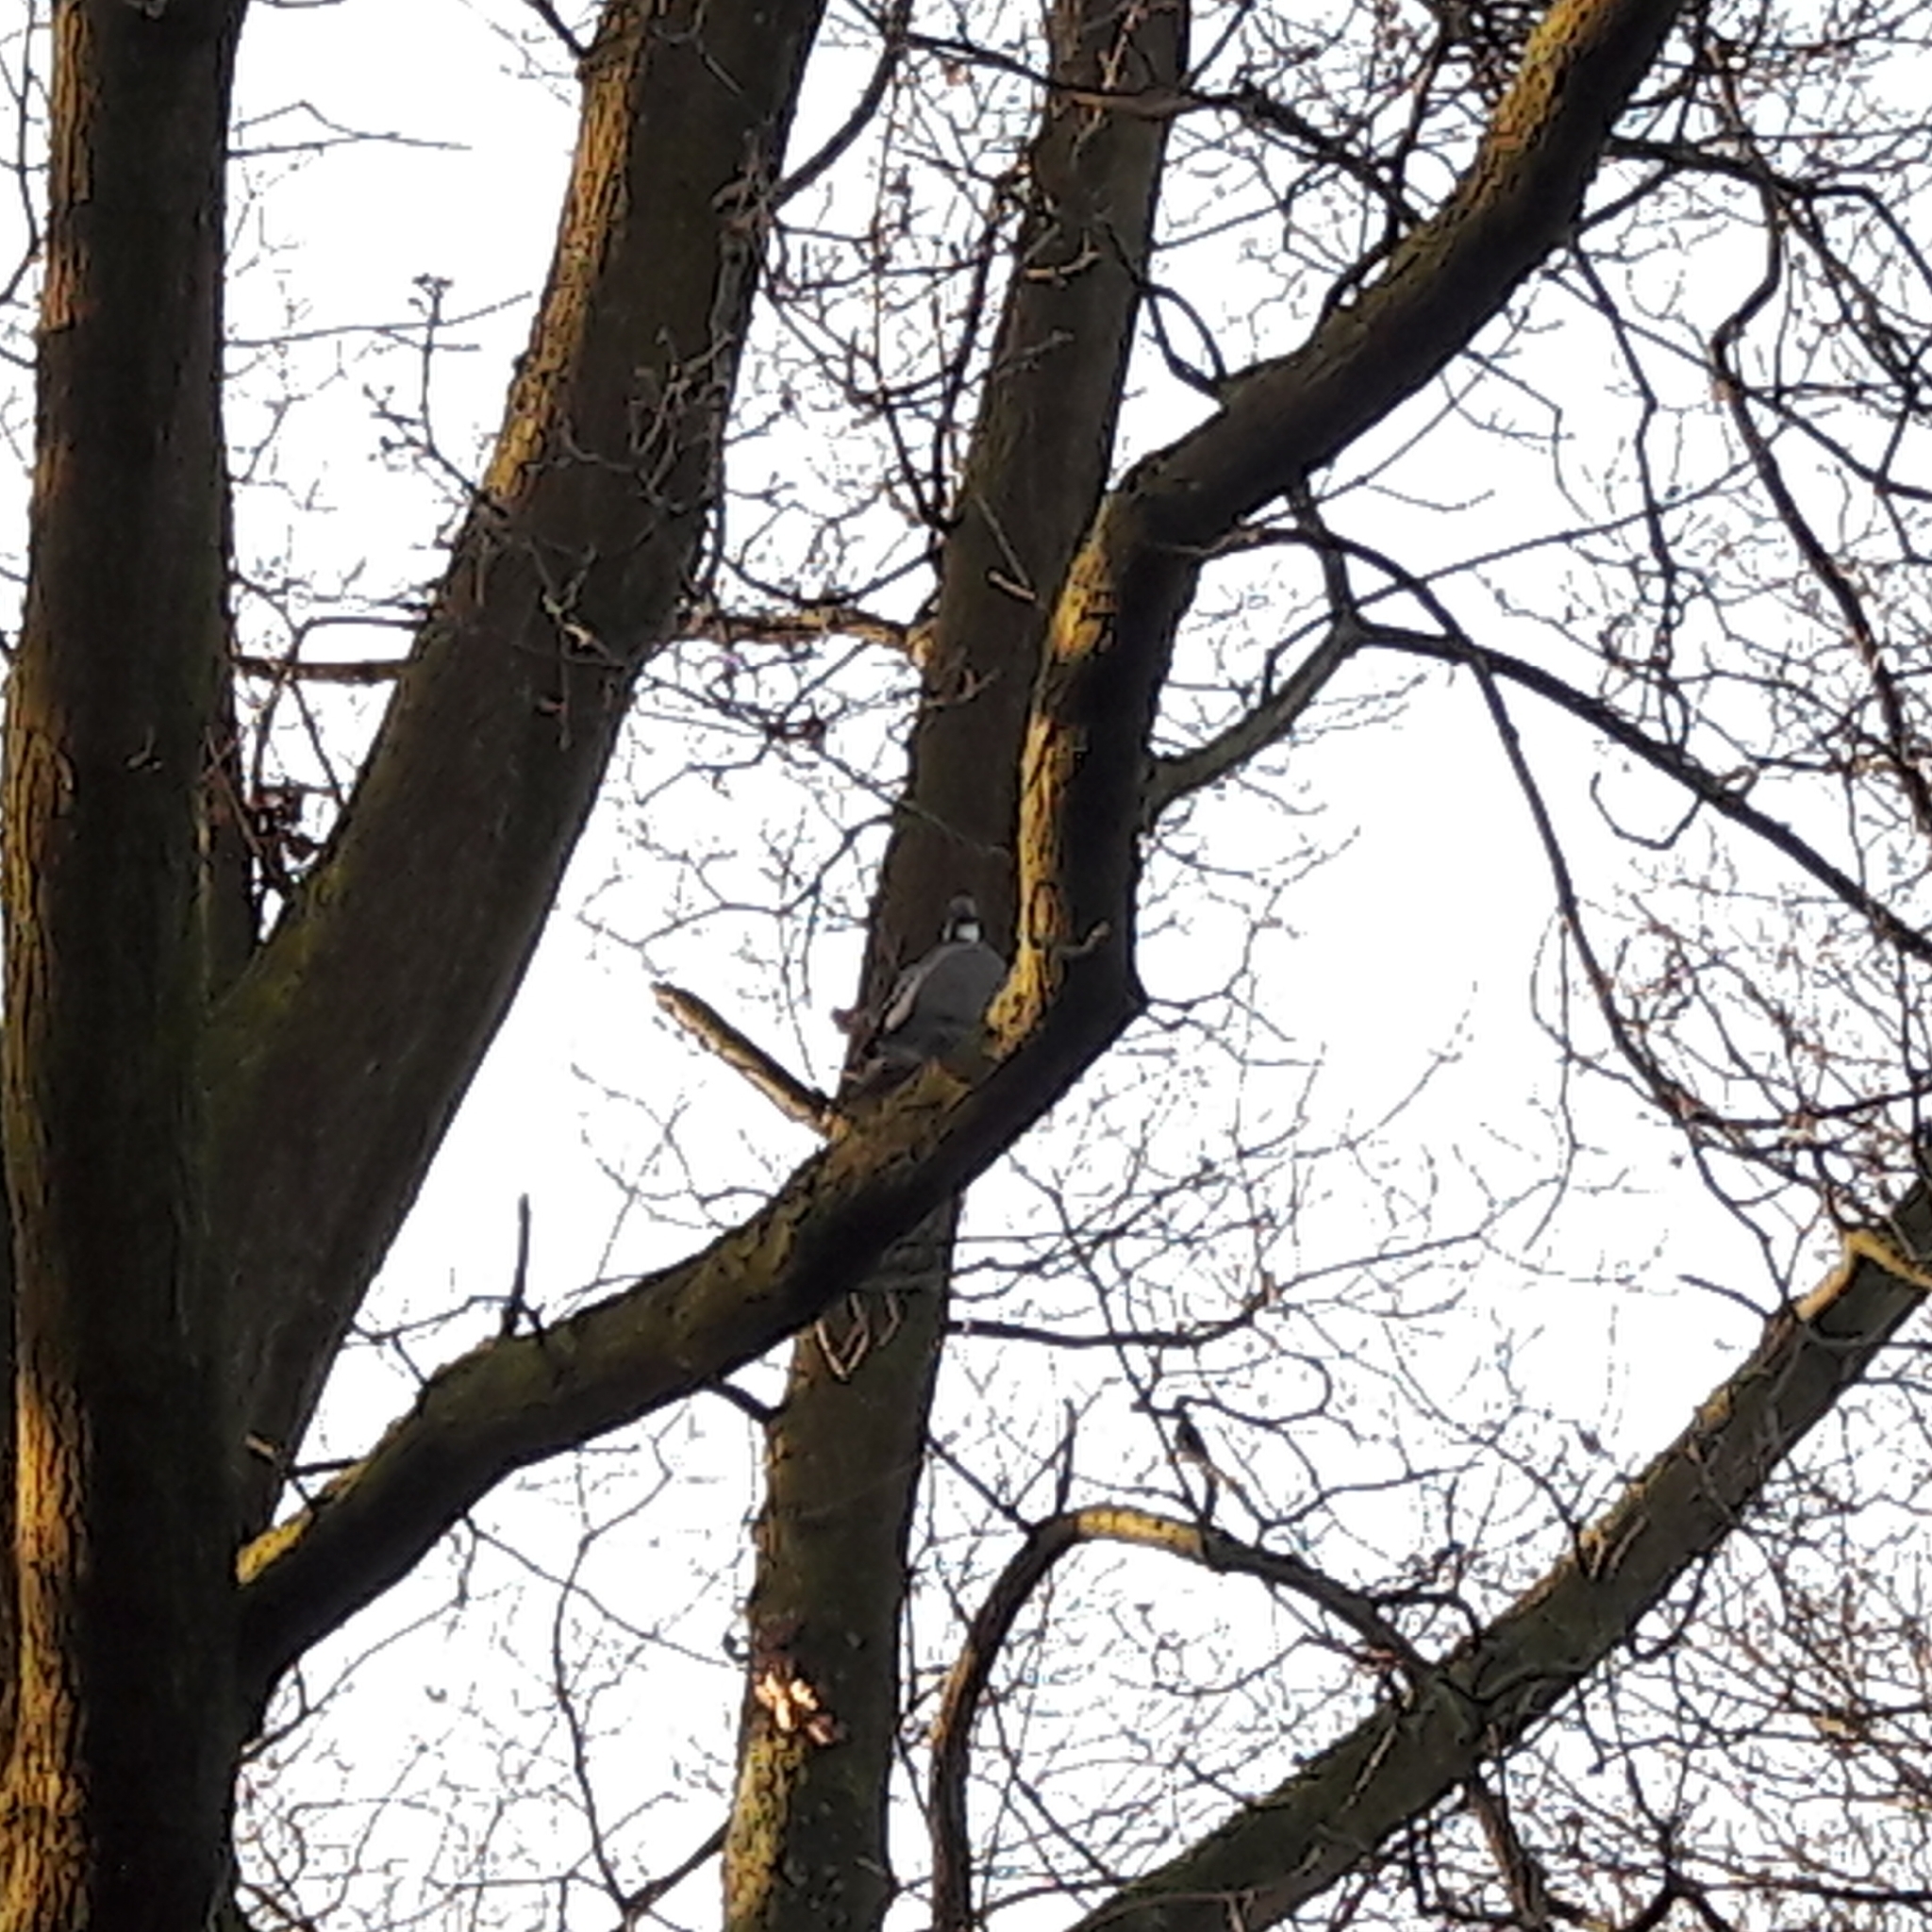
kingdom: Animalia
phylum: Chordata
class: Aves
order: Columbiformes
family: Columbidae
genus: Columba
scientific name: Columba palumbus
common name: Common wood pigeon
